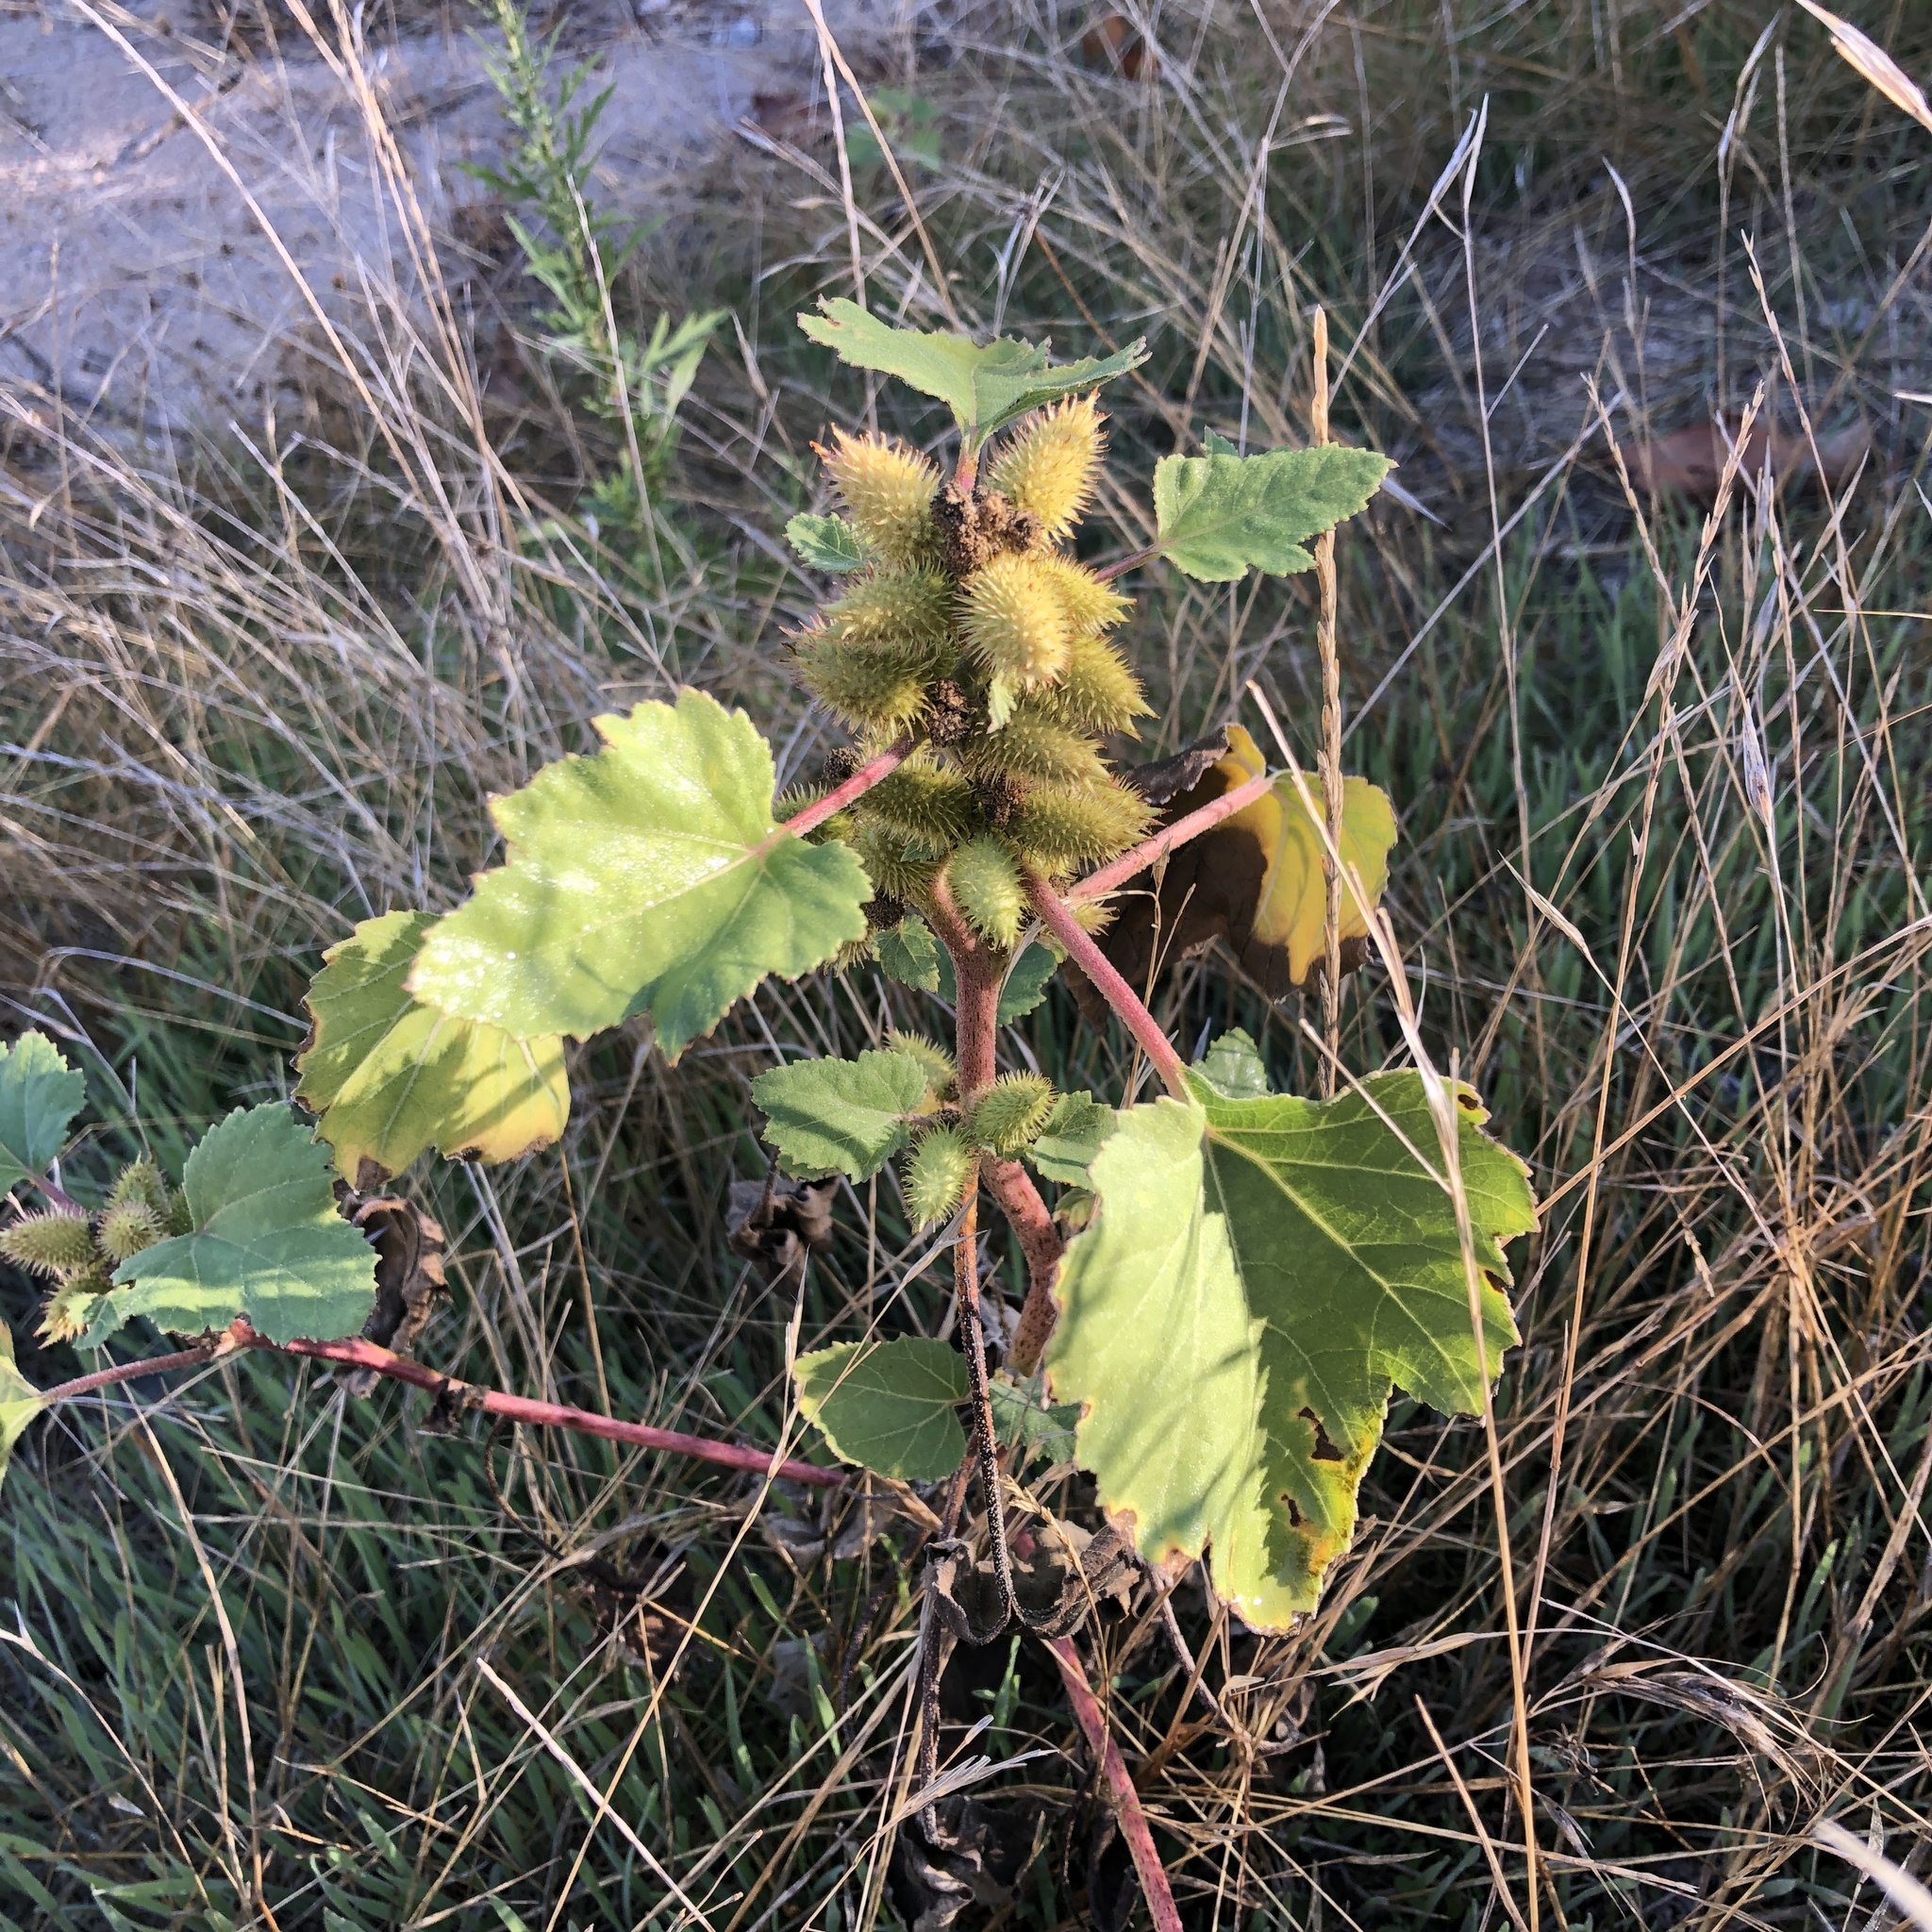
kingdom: Plantae
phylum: Tracheophyta
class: Magnoliopsida
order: Asterales
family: Asteraceae
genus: Xanthium
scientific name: Xanthium strumarium
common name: Rough cocklebur
